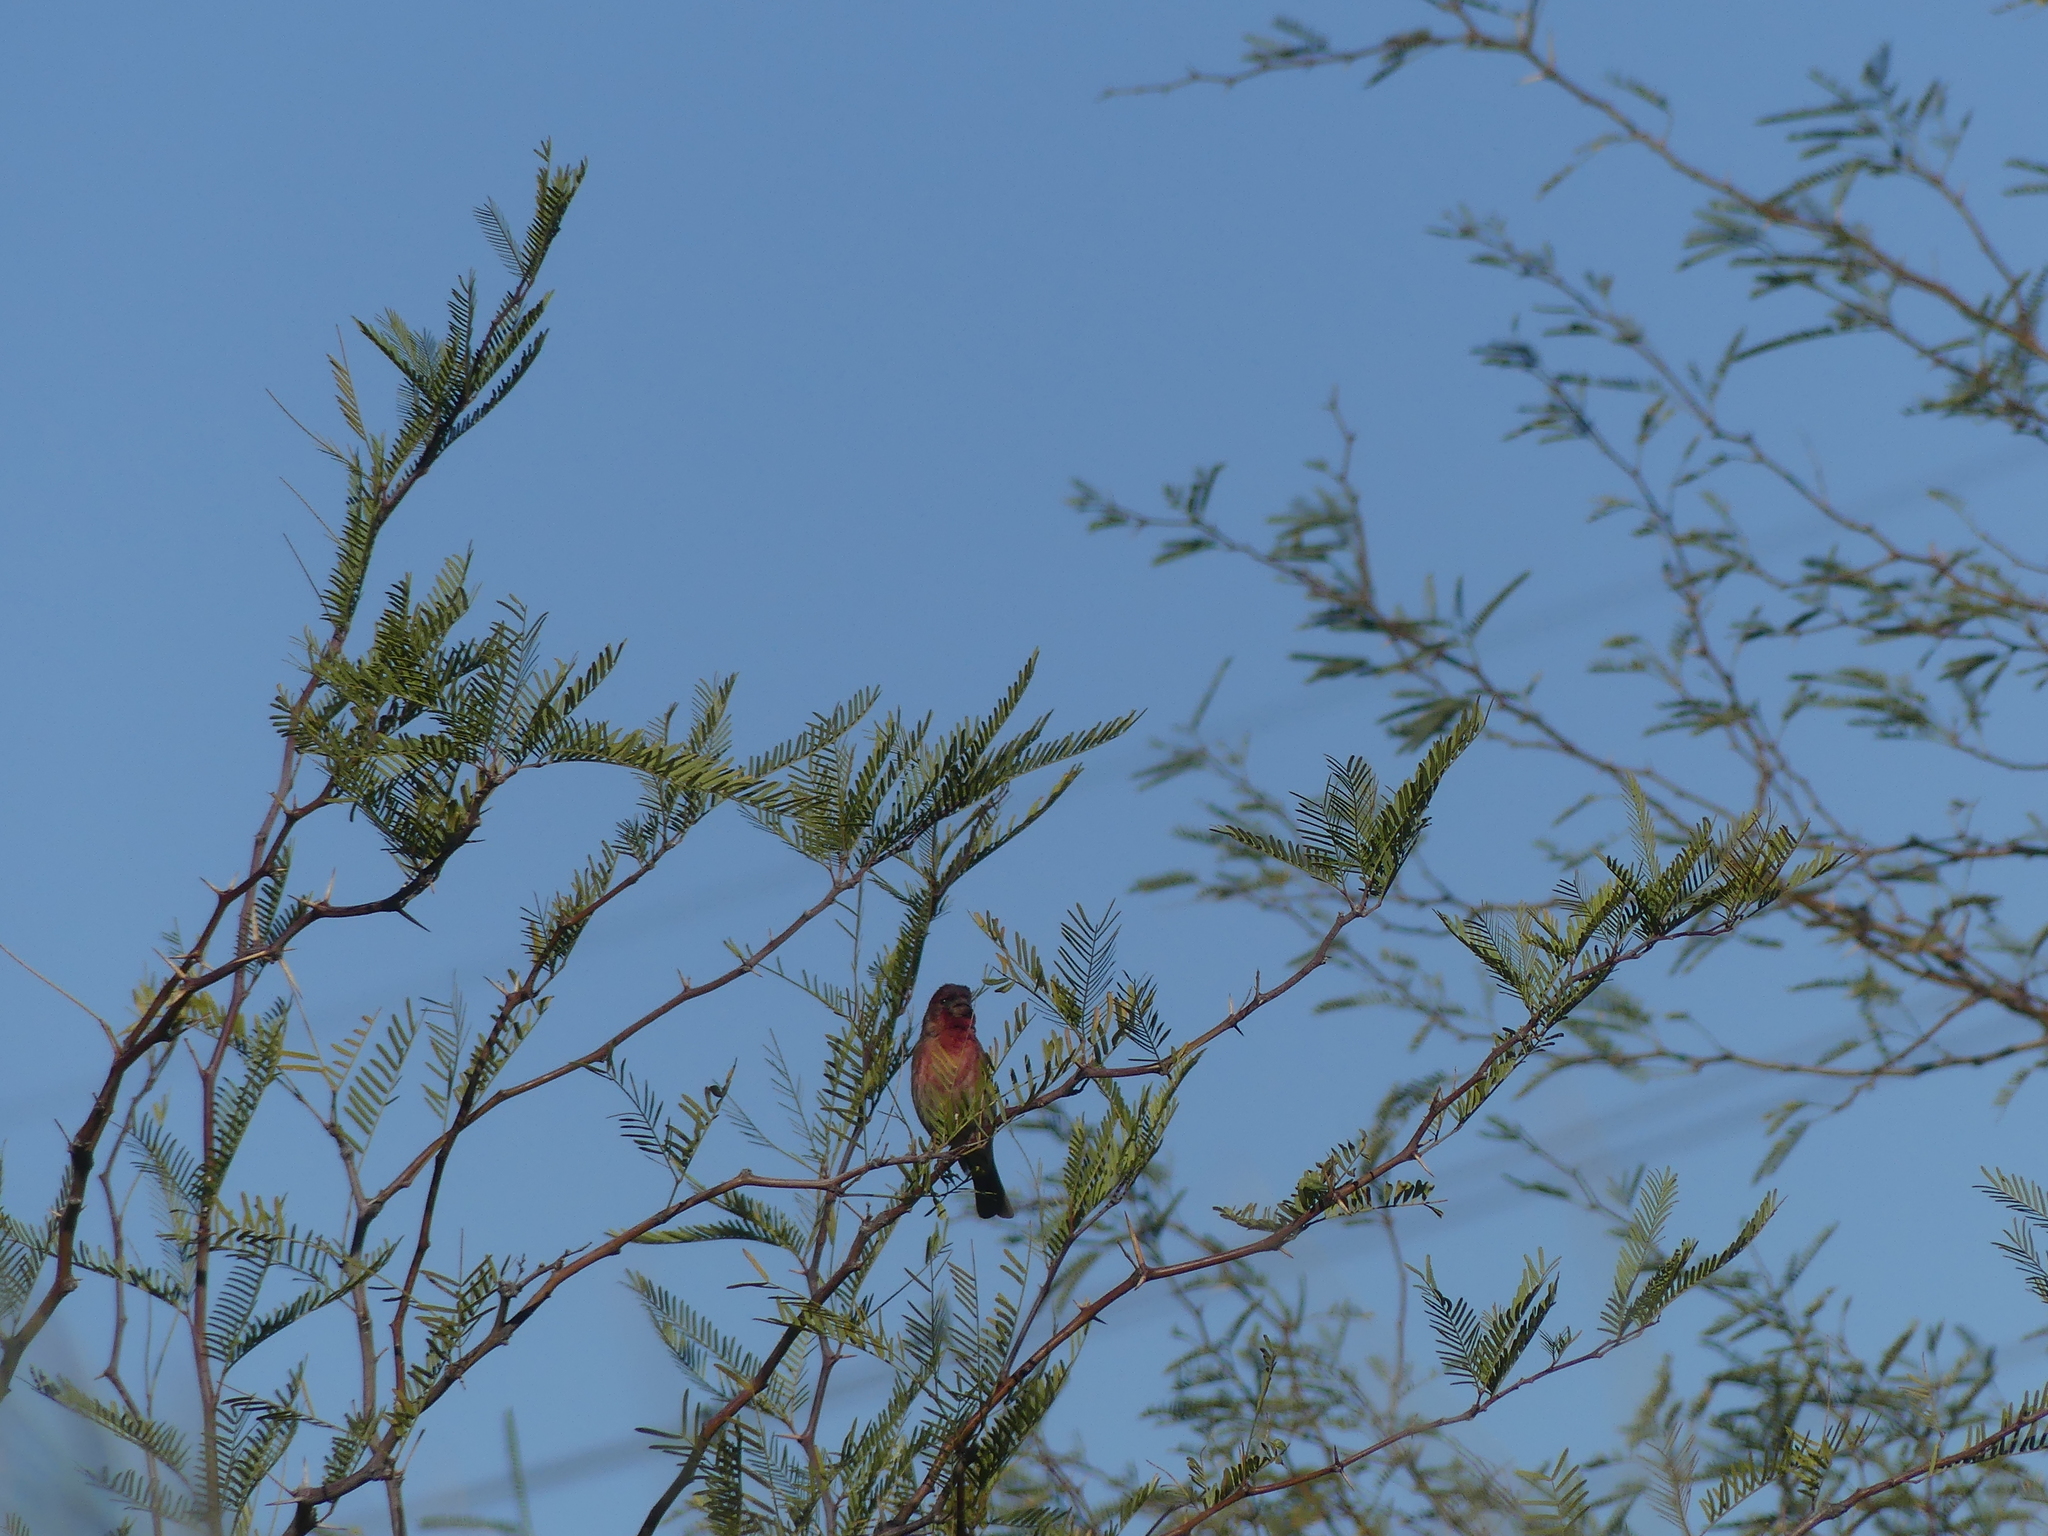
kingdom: Animalia
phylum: Chordata
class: Aves
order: Passeriformes
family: Fringillidae
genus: Haemorhous
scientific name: Haemorhous mexicanus
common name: House finch
